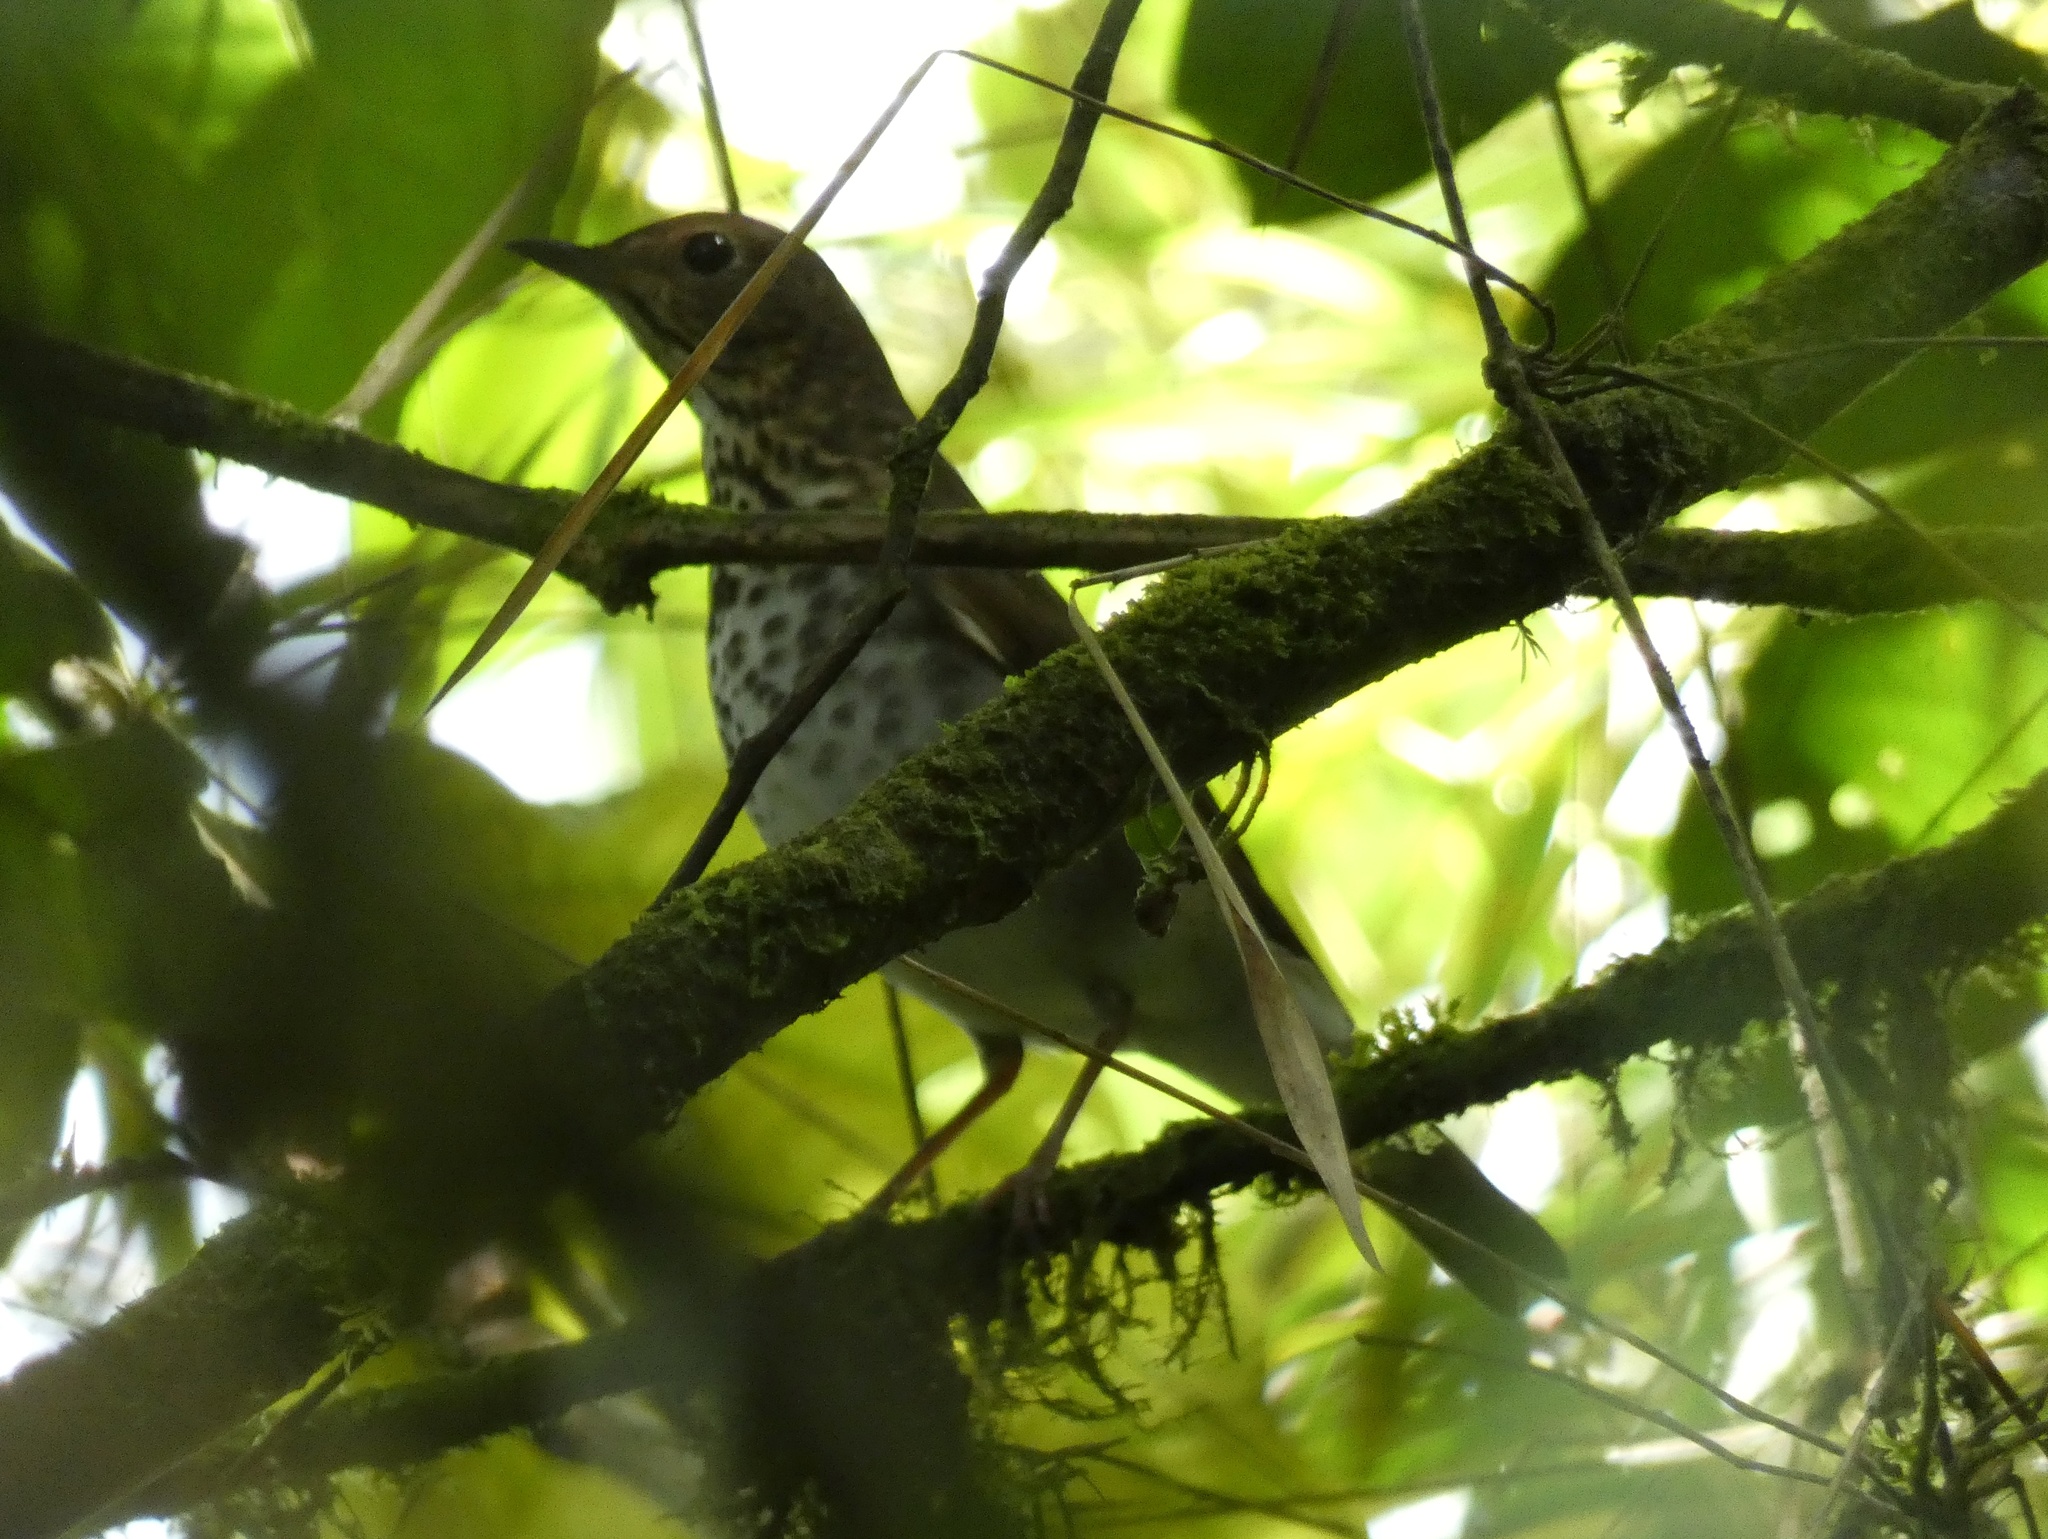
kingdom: Animalia
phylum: Chordata
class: Aves
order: Passeriformes
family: Turdidae
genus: Catharus
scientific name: Catharus ustulatus
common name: Swainson's thrush
